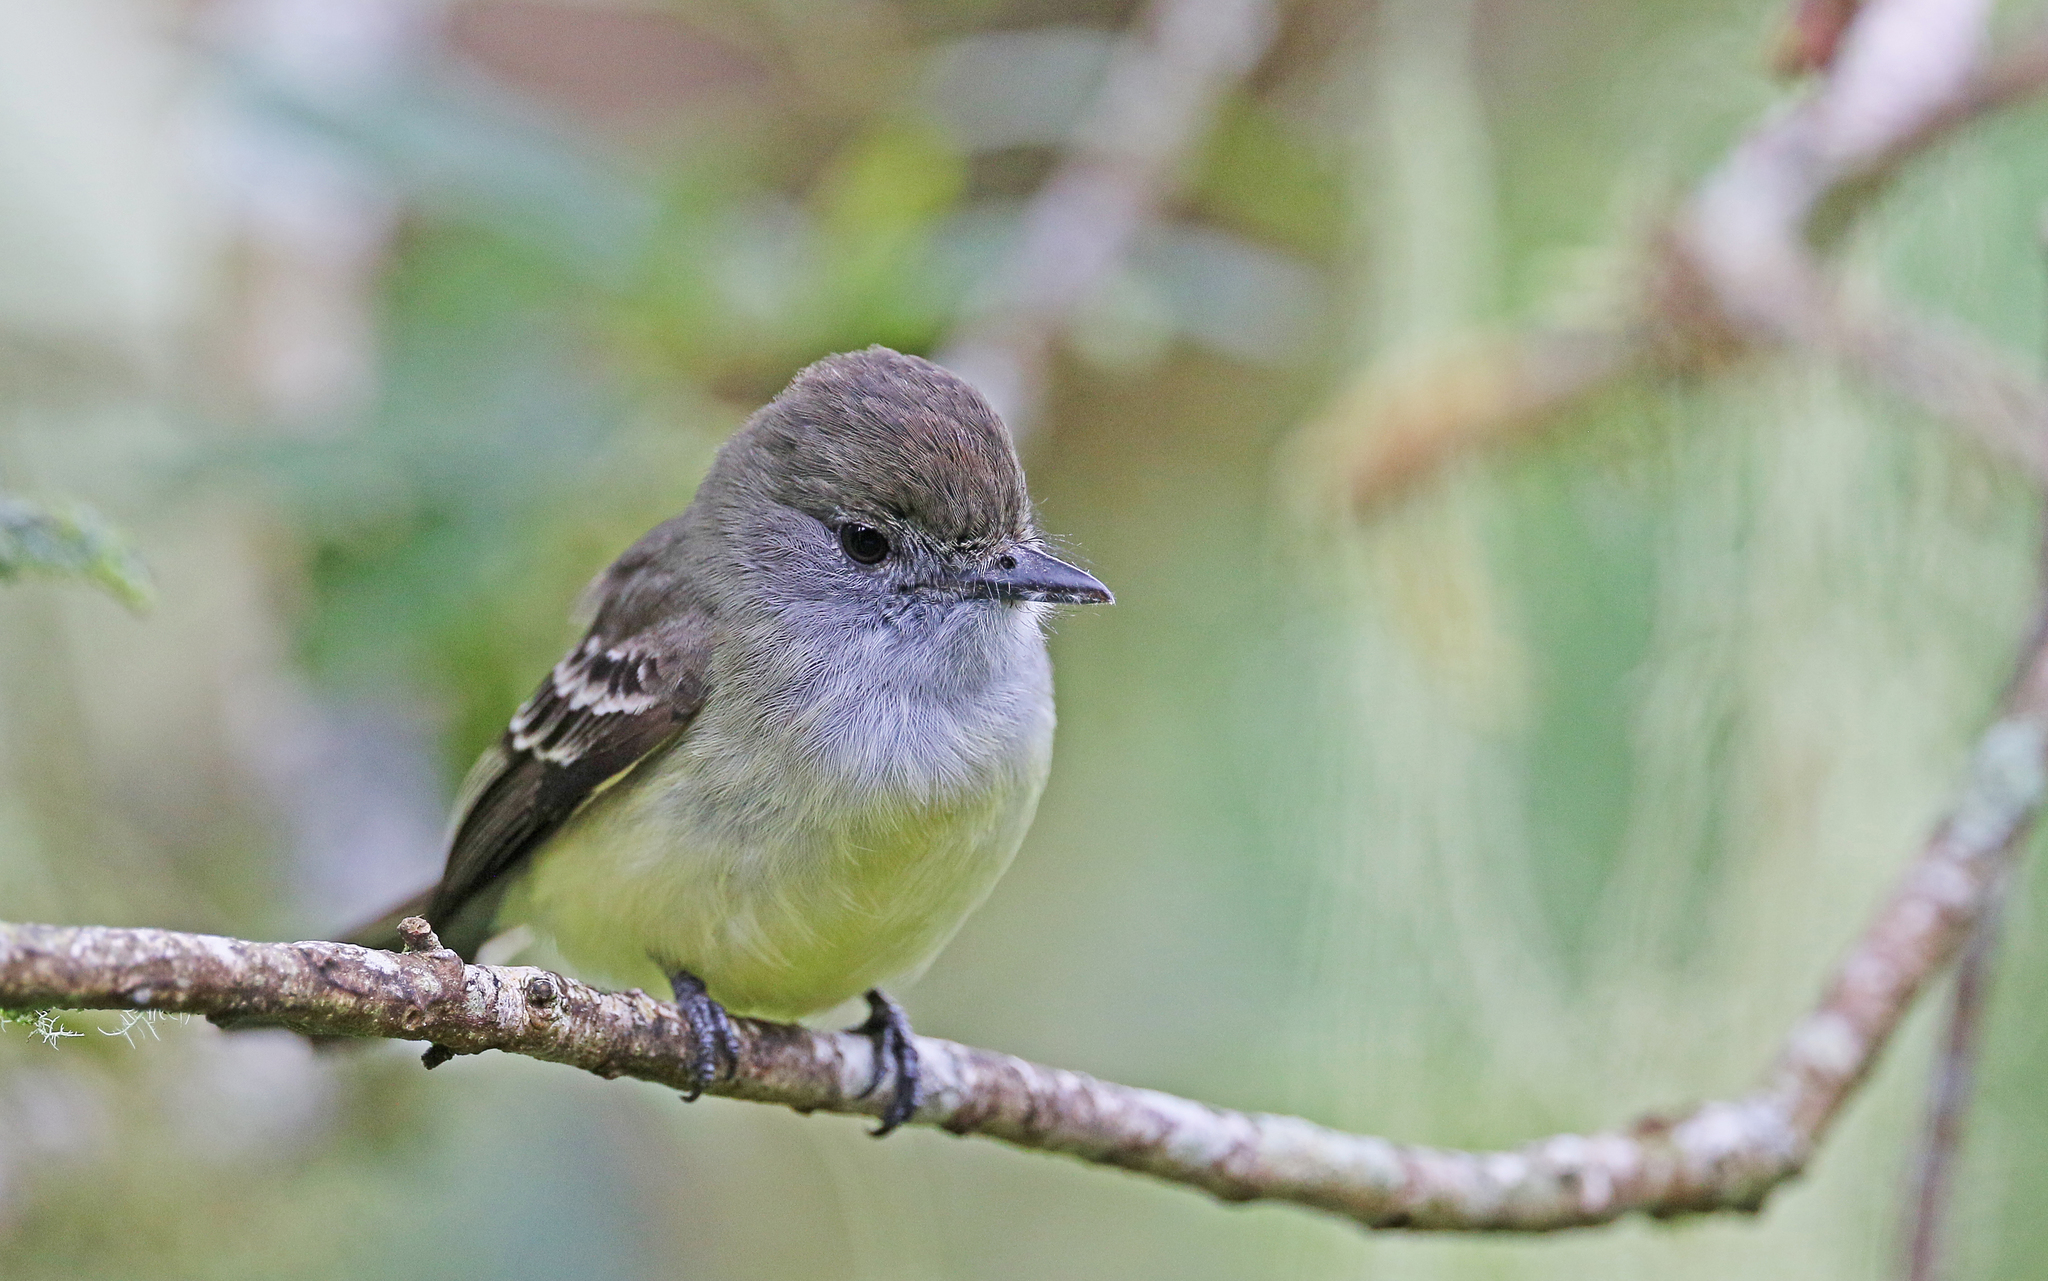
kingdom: Animalia
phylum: Chordata
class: Aves
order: Passeriformes
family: Tyrannidae
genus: Myiarchus
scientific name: Myiarchus cephalotes
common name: Pale-edged flycatcher
